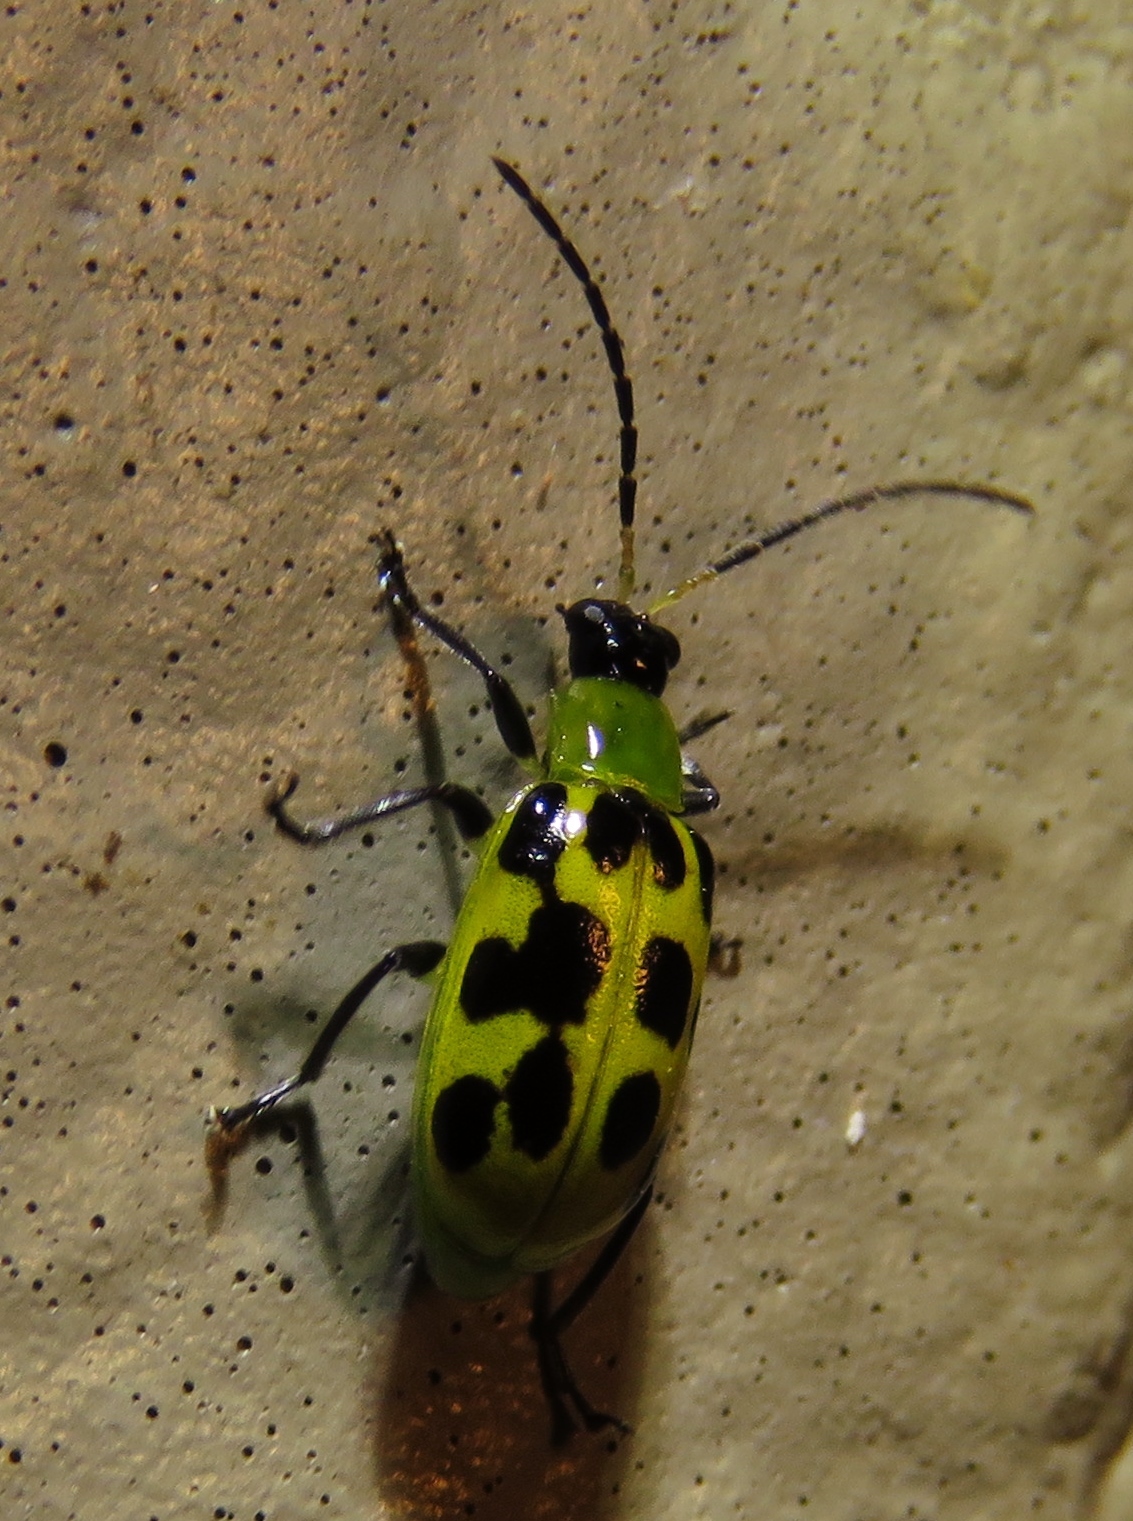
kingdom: Animalia
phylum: Arthropoda
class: Insecta
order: Coleoptera
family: Chrysomelidae
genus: Diabrotica
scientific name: Diabrotica undecimpunctata
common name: Spotted cucumber beetle
